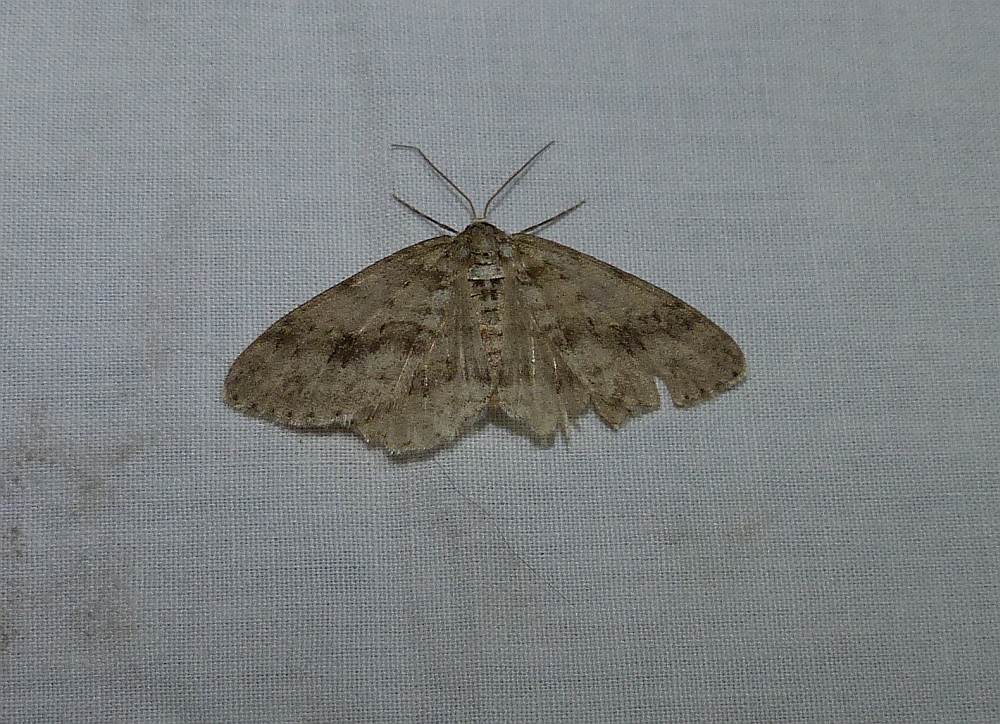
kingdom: Animalia
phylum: Arthropoda
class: Insecta
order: Lepidoptera
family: Geometridae
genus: Ectropis
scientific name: Ectropis crepuscularia
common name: Engrailed
